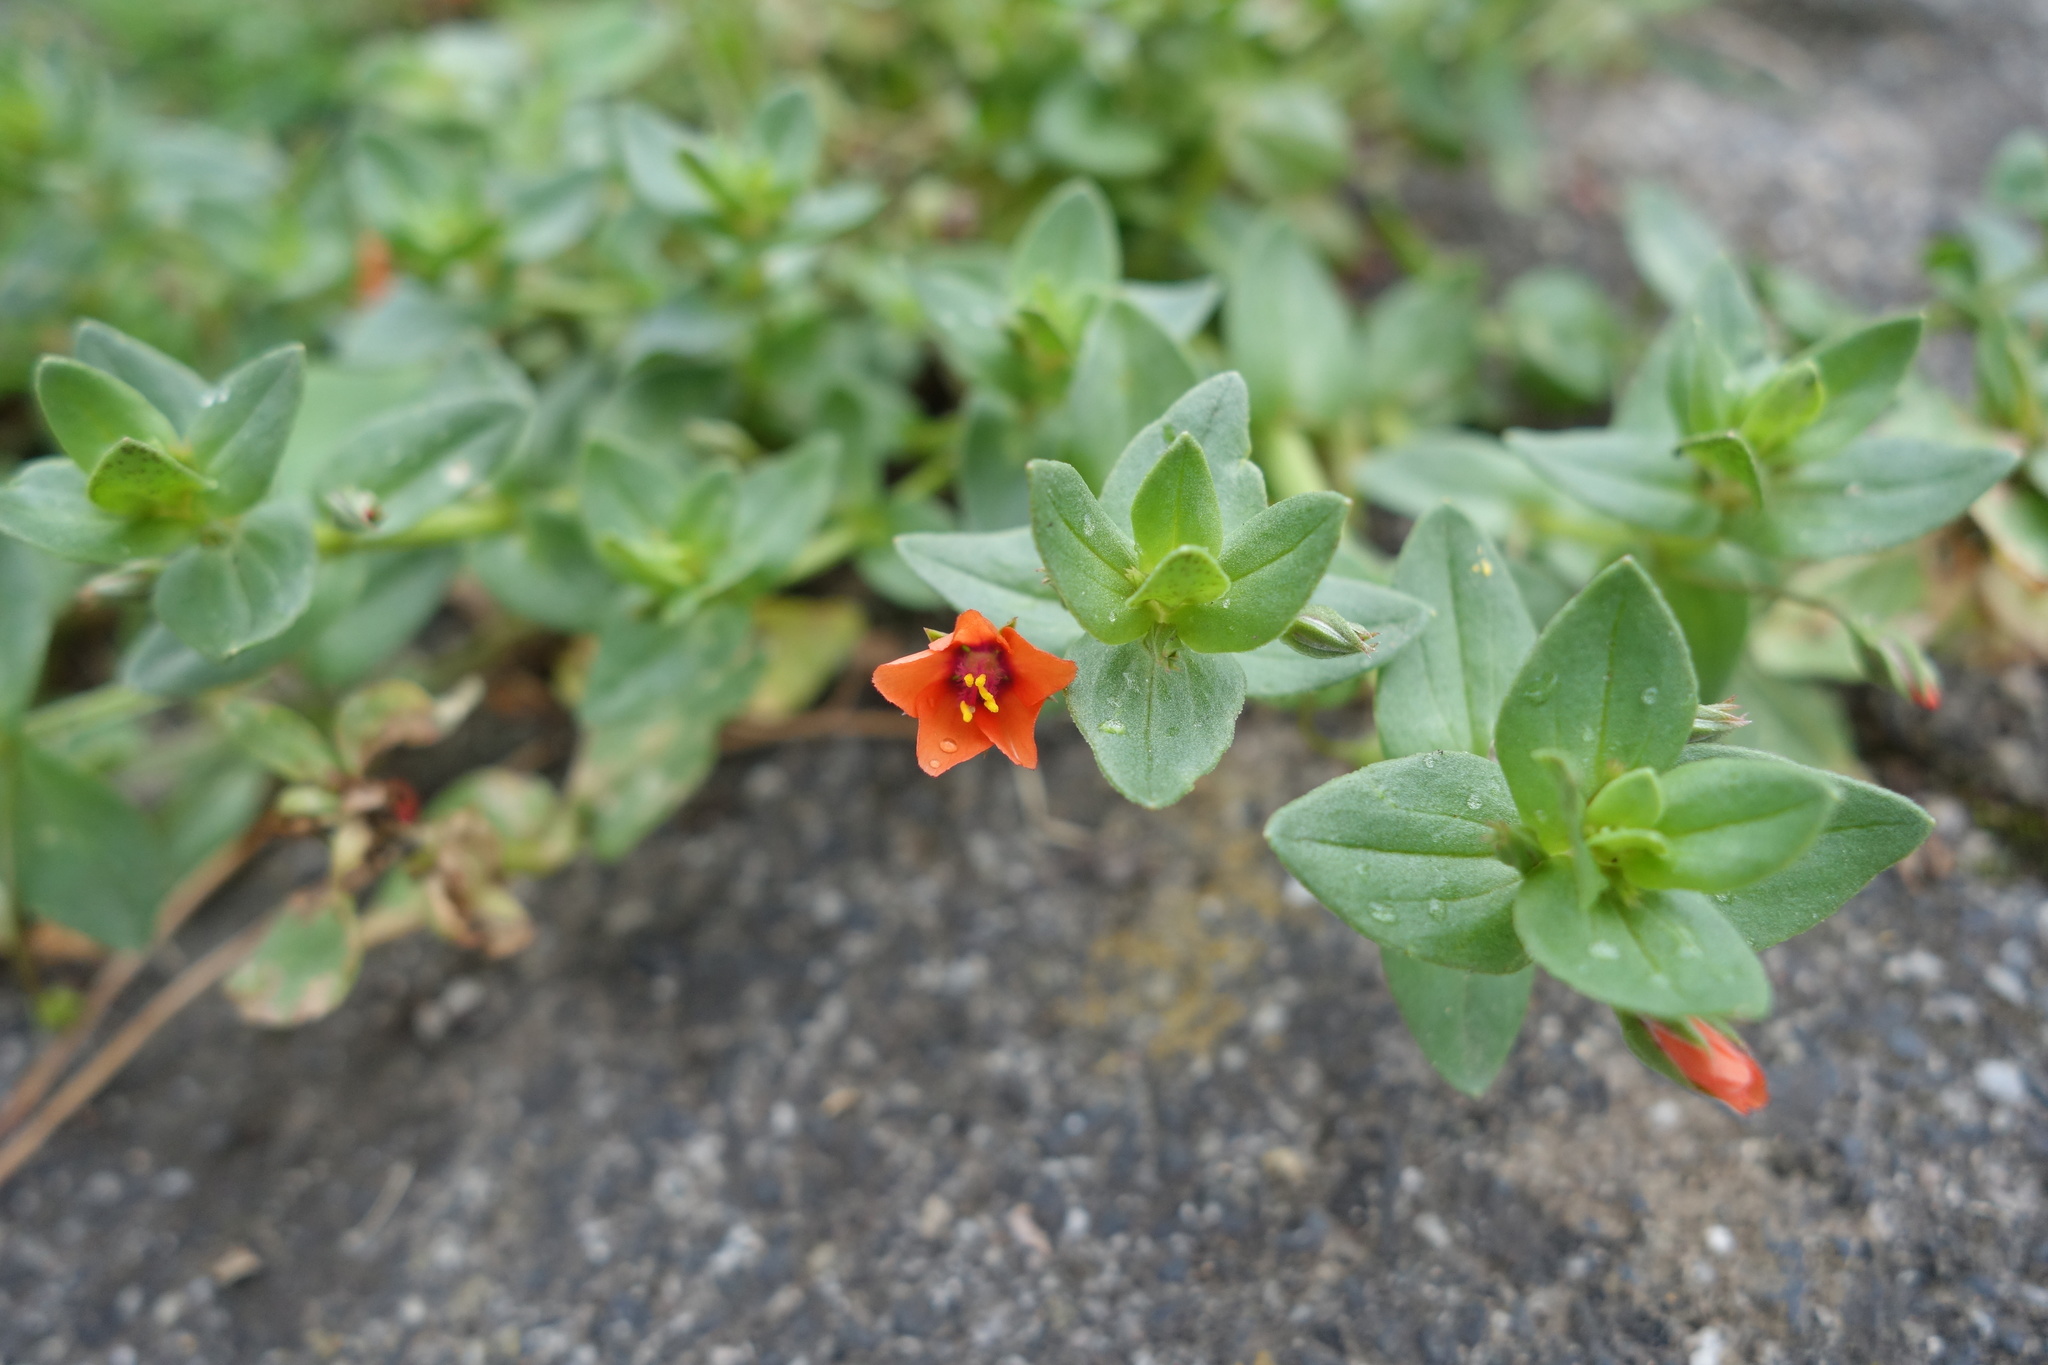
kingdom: Plantae
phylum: Tracheophyta
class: Magnoliopsida
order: Ericales
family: Primulaceae
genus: Lysimachia
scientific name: Lysimachia arvensis
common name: Scarlet pimpernel
